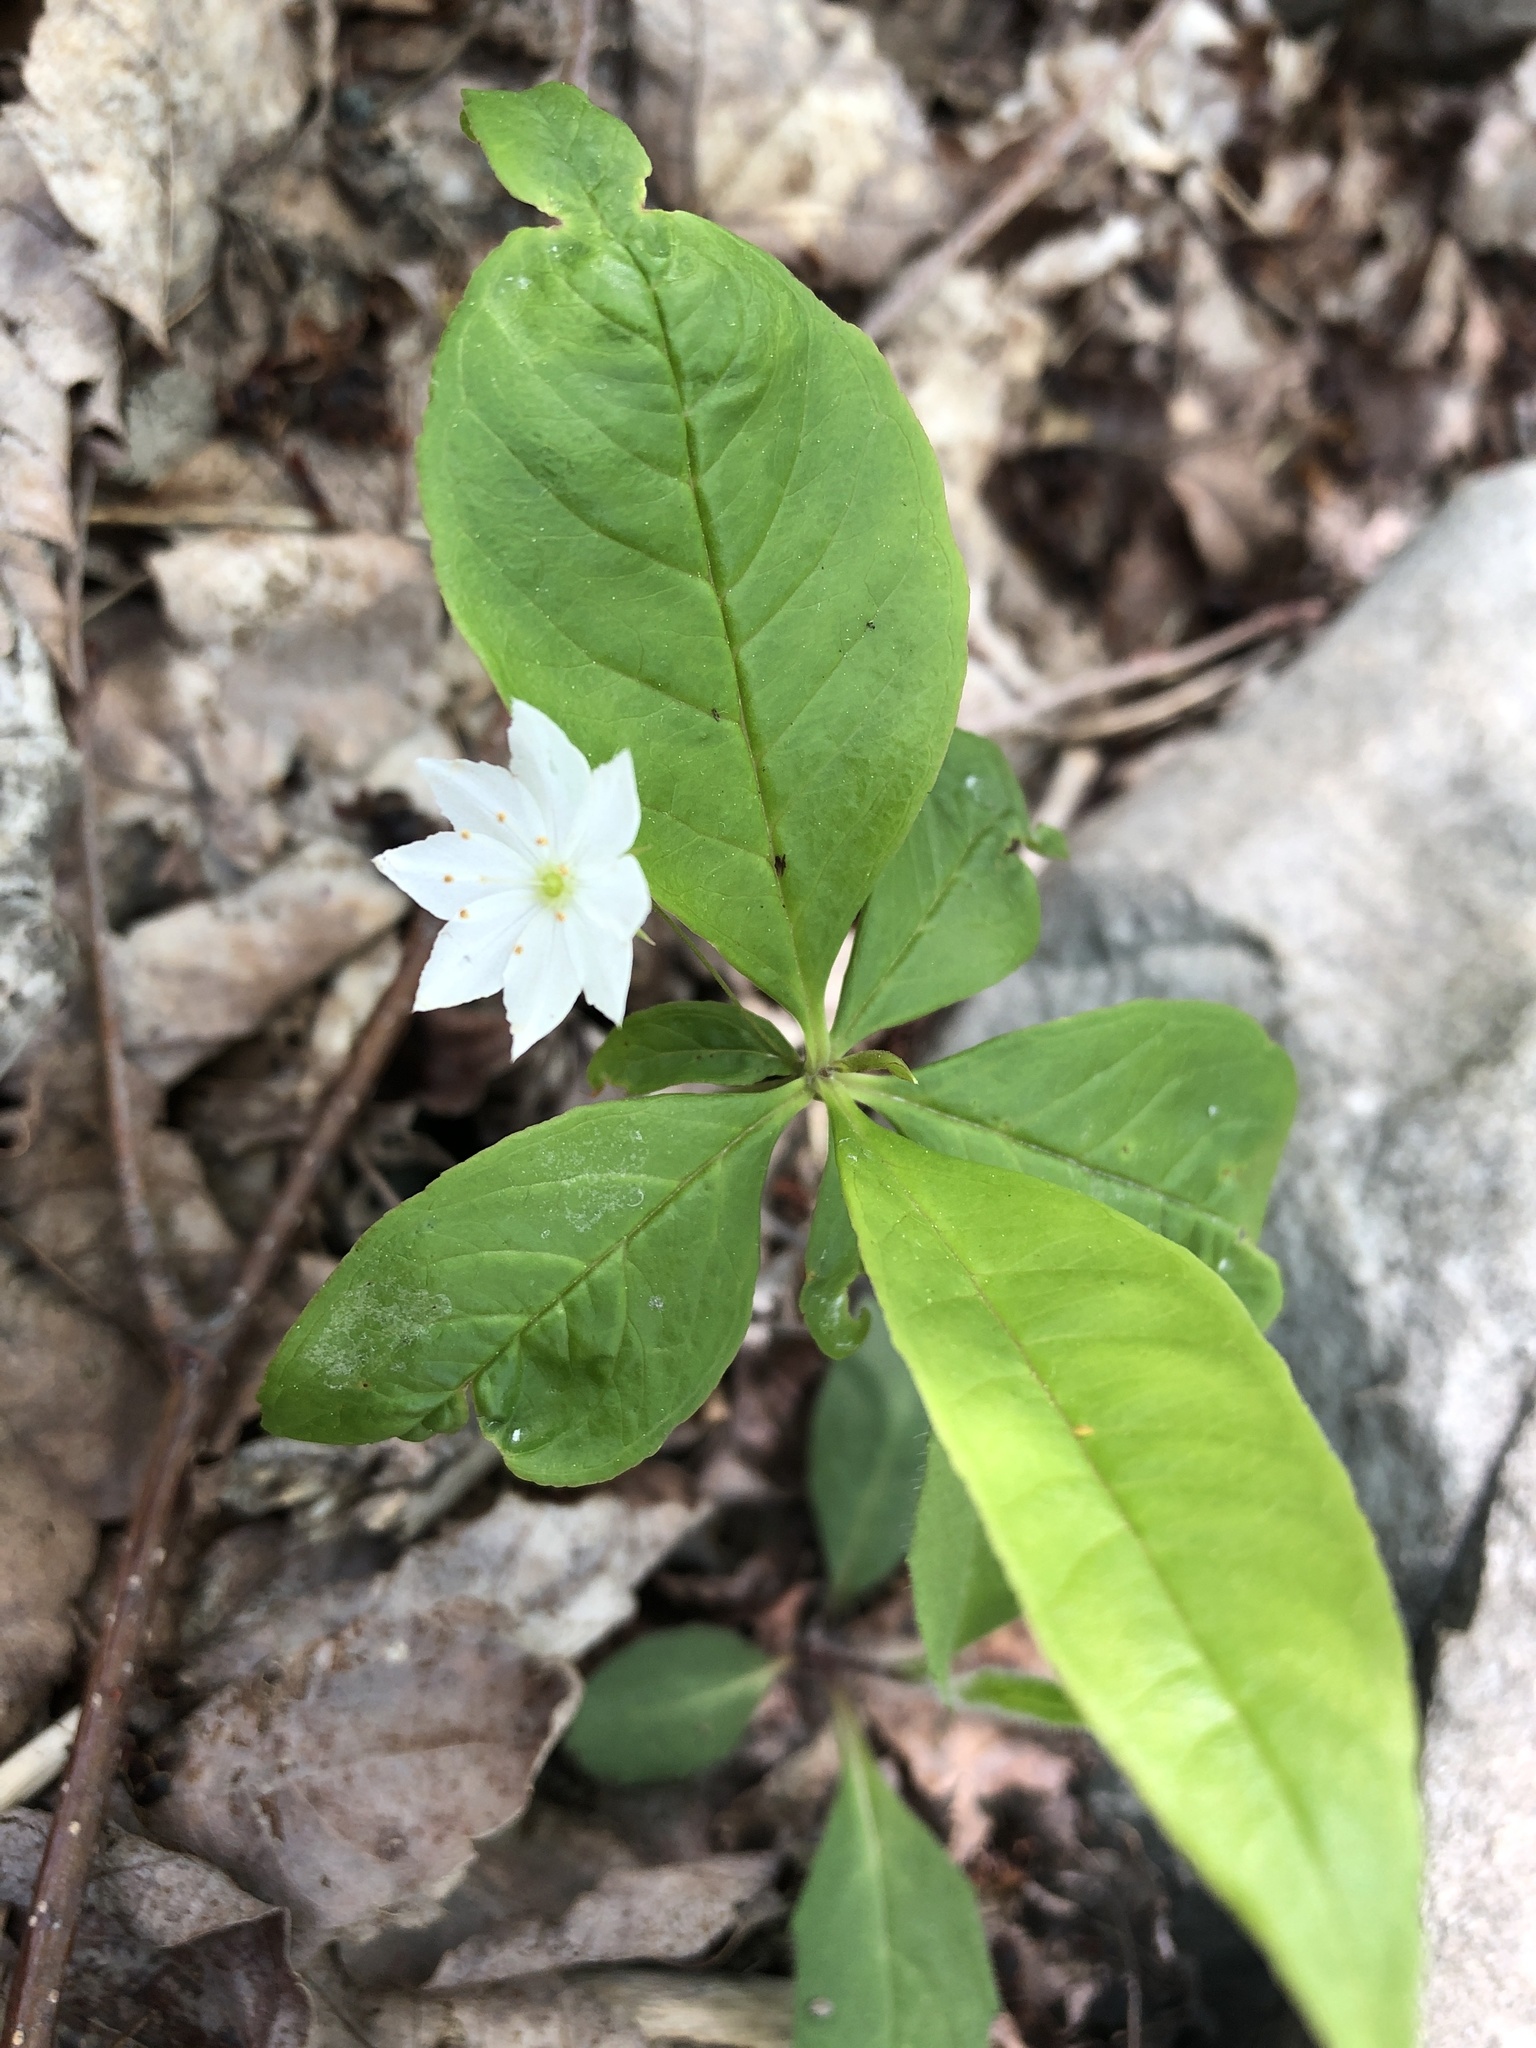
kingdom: Plantae
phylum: Tracheophyta
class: Magnoliopsida
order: Ericales
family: Primulaceae
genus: Lysimachia
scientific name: Lysimachia borealis
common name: American starflower
